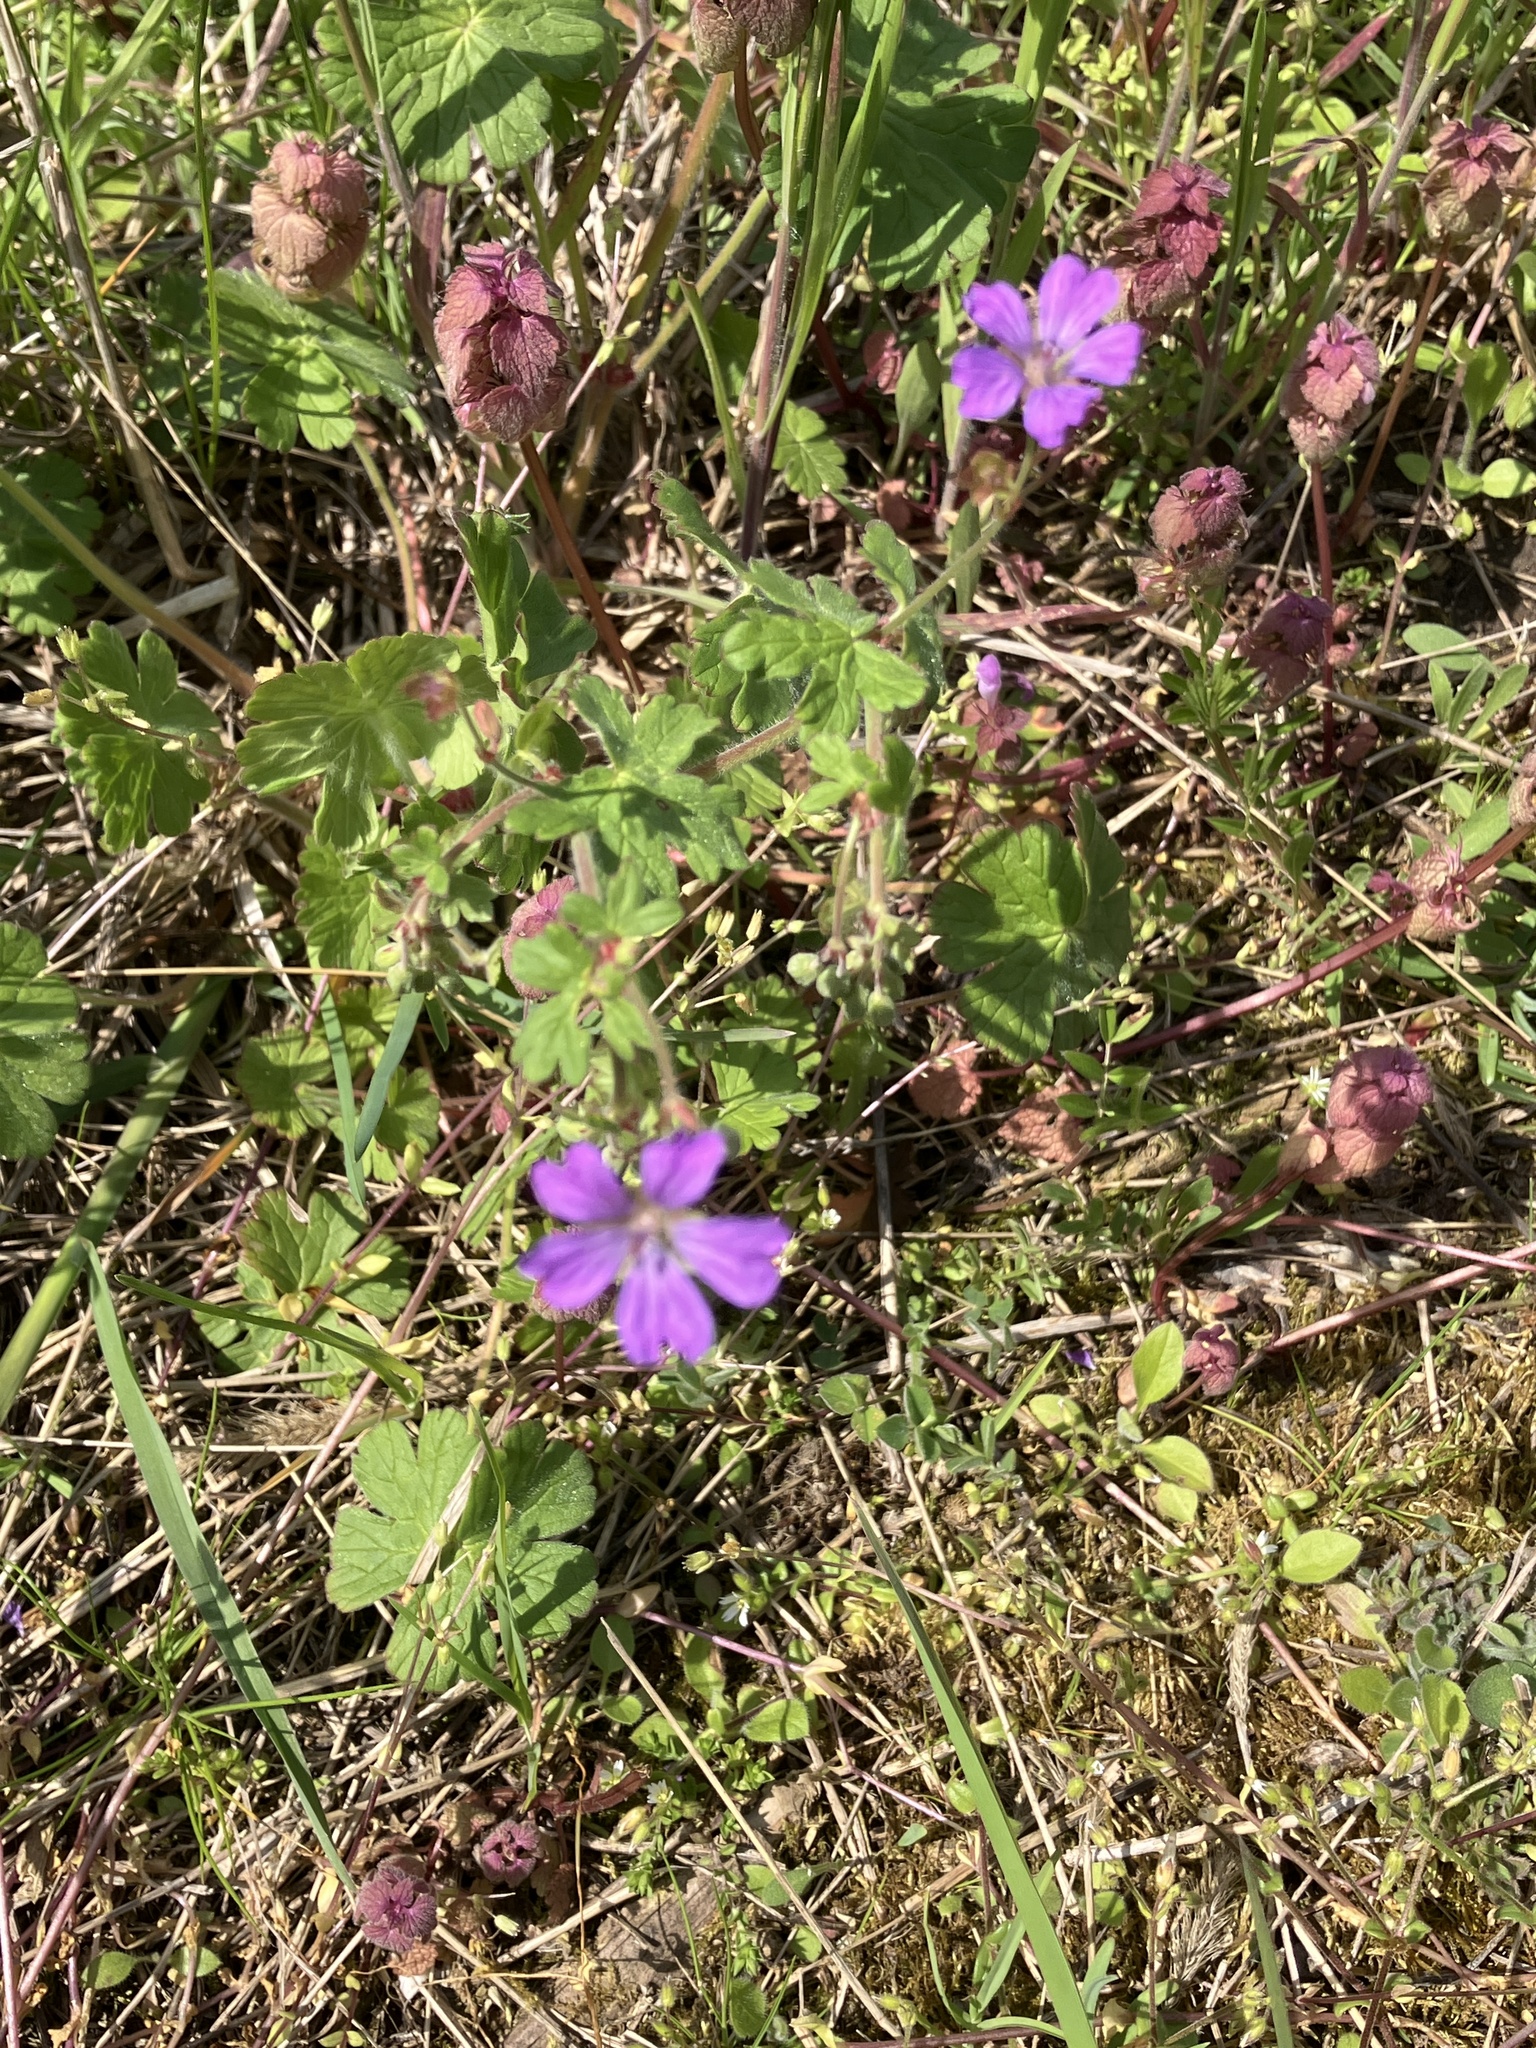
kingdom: Plantae
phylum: Tracheophyta
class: Magnoliopsida
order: Geraniales
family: Geraniaceae
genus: Geranium
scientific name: Geranium pyrenaicum
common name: Hedgerow crane's-bill
